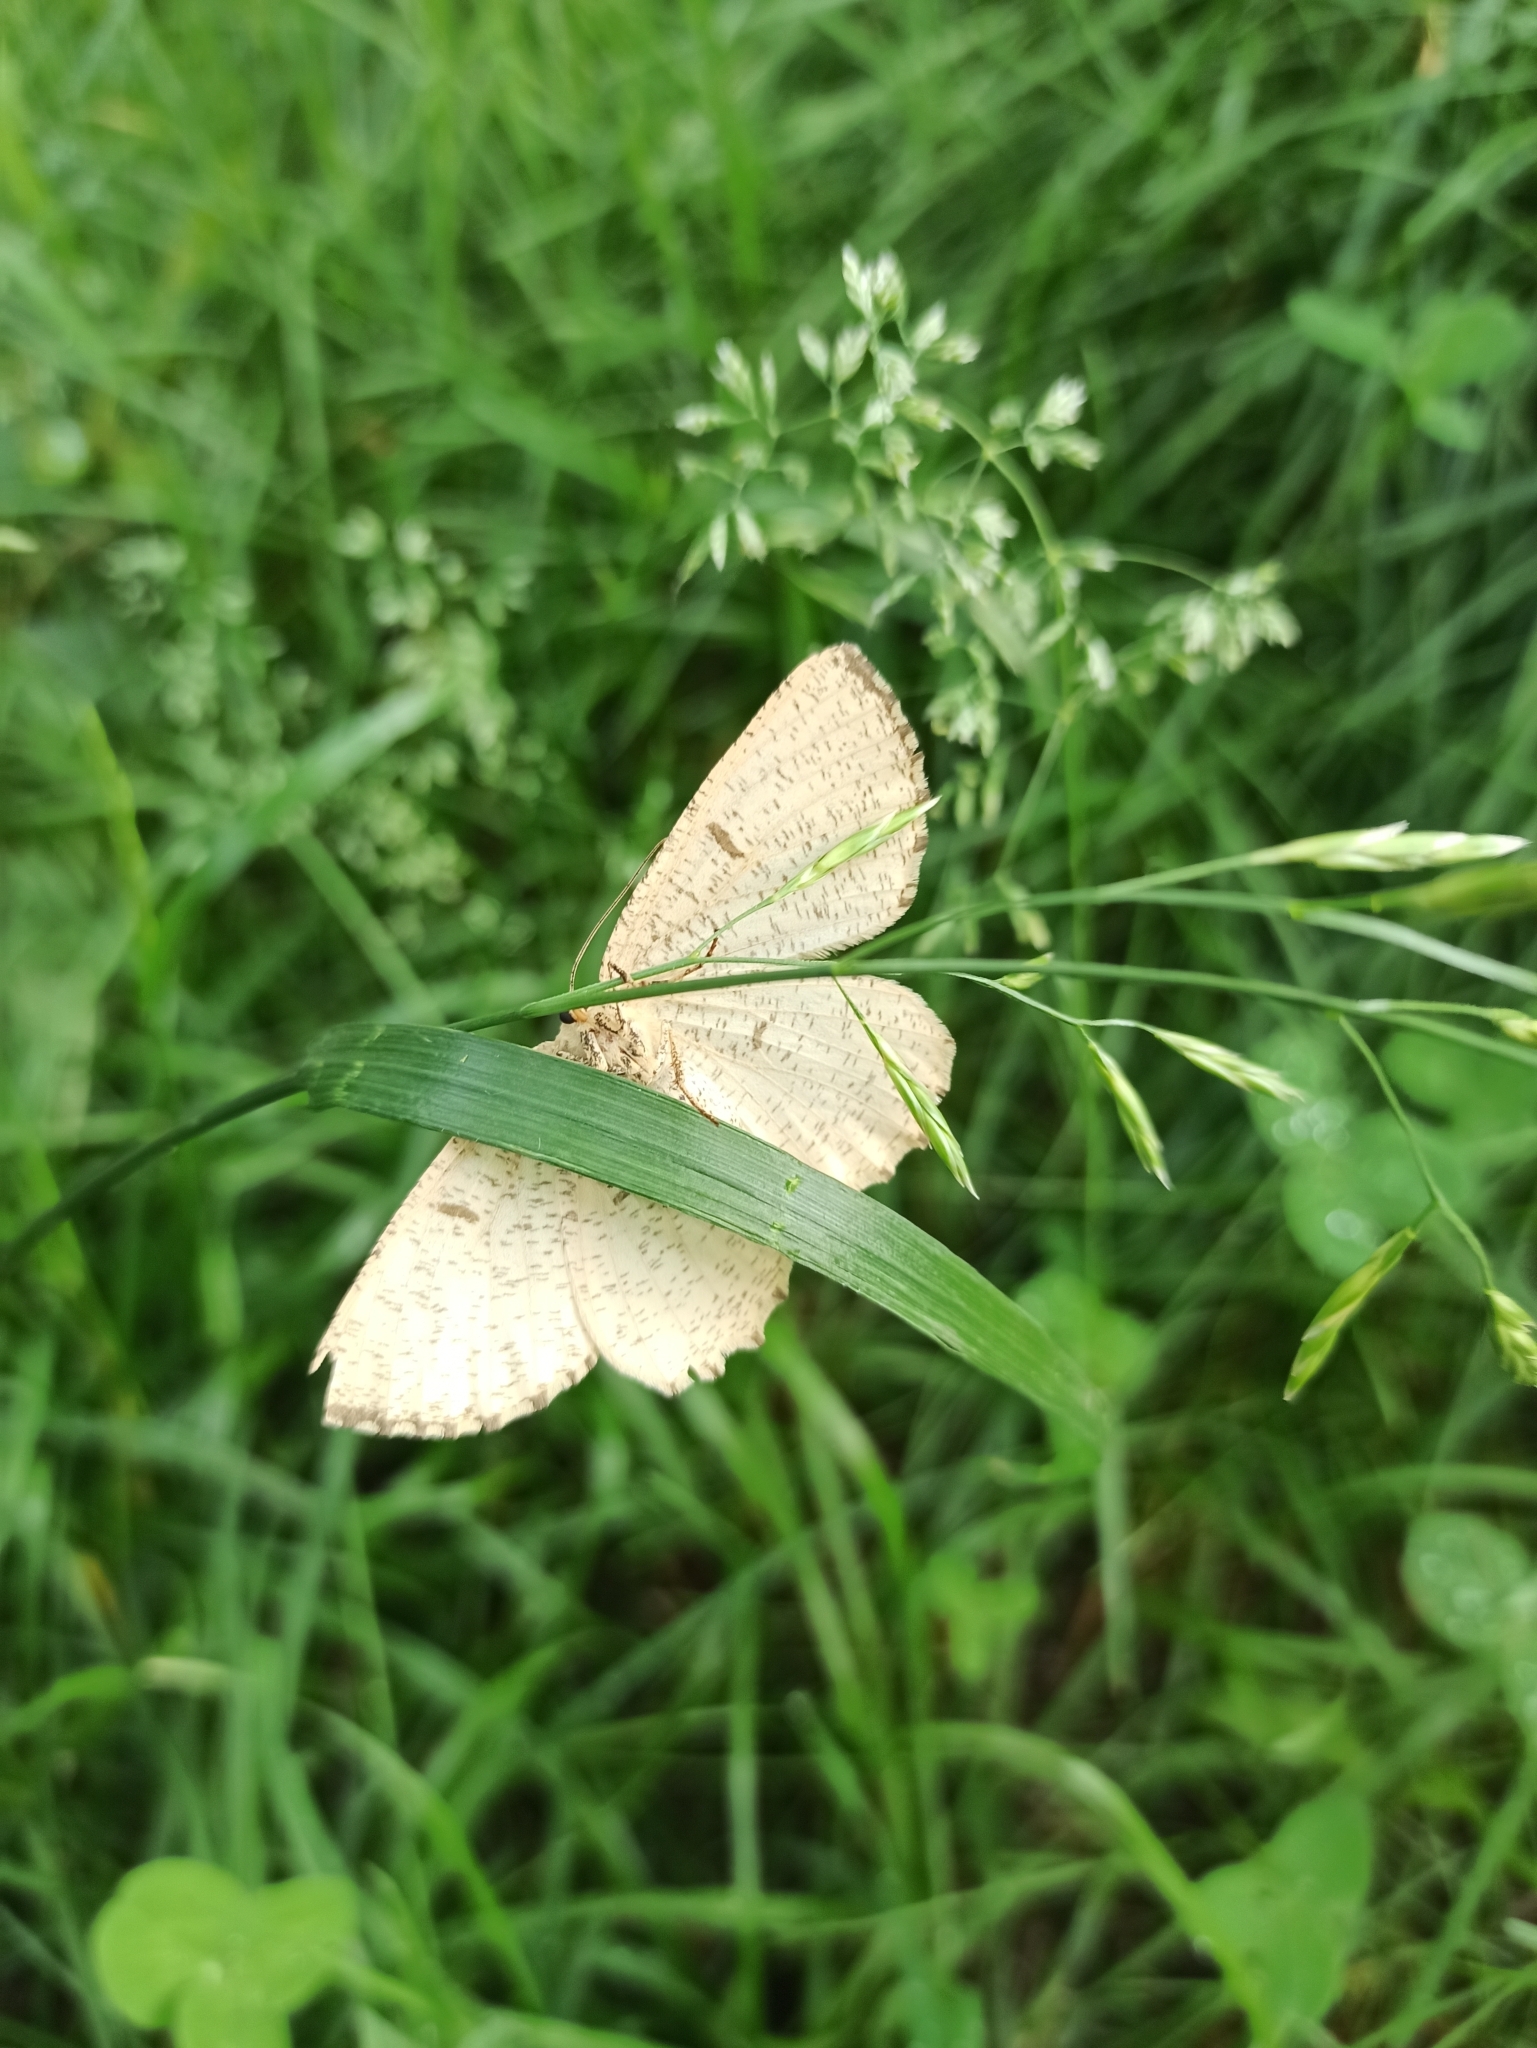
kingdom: Animalia
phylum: Arthropoda
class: Insecta
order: Lepidoptera
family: Geometridae
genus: Angerona
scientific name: Angerona prunaria
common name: Orange moth
